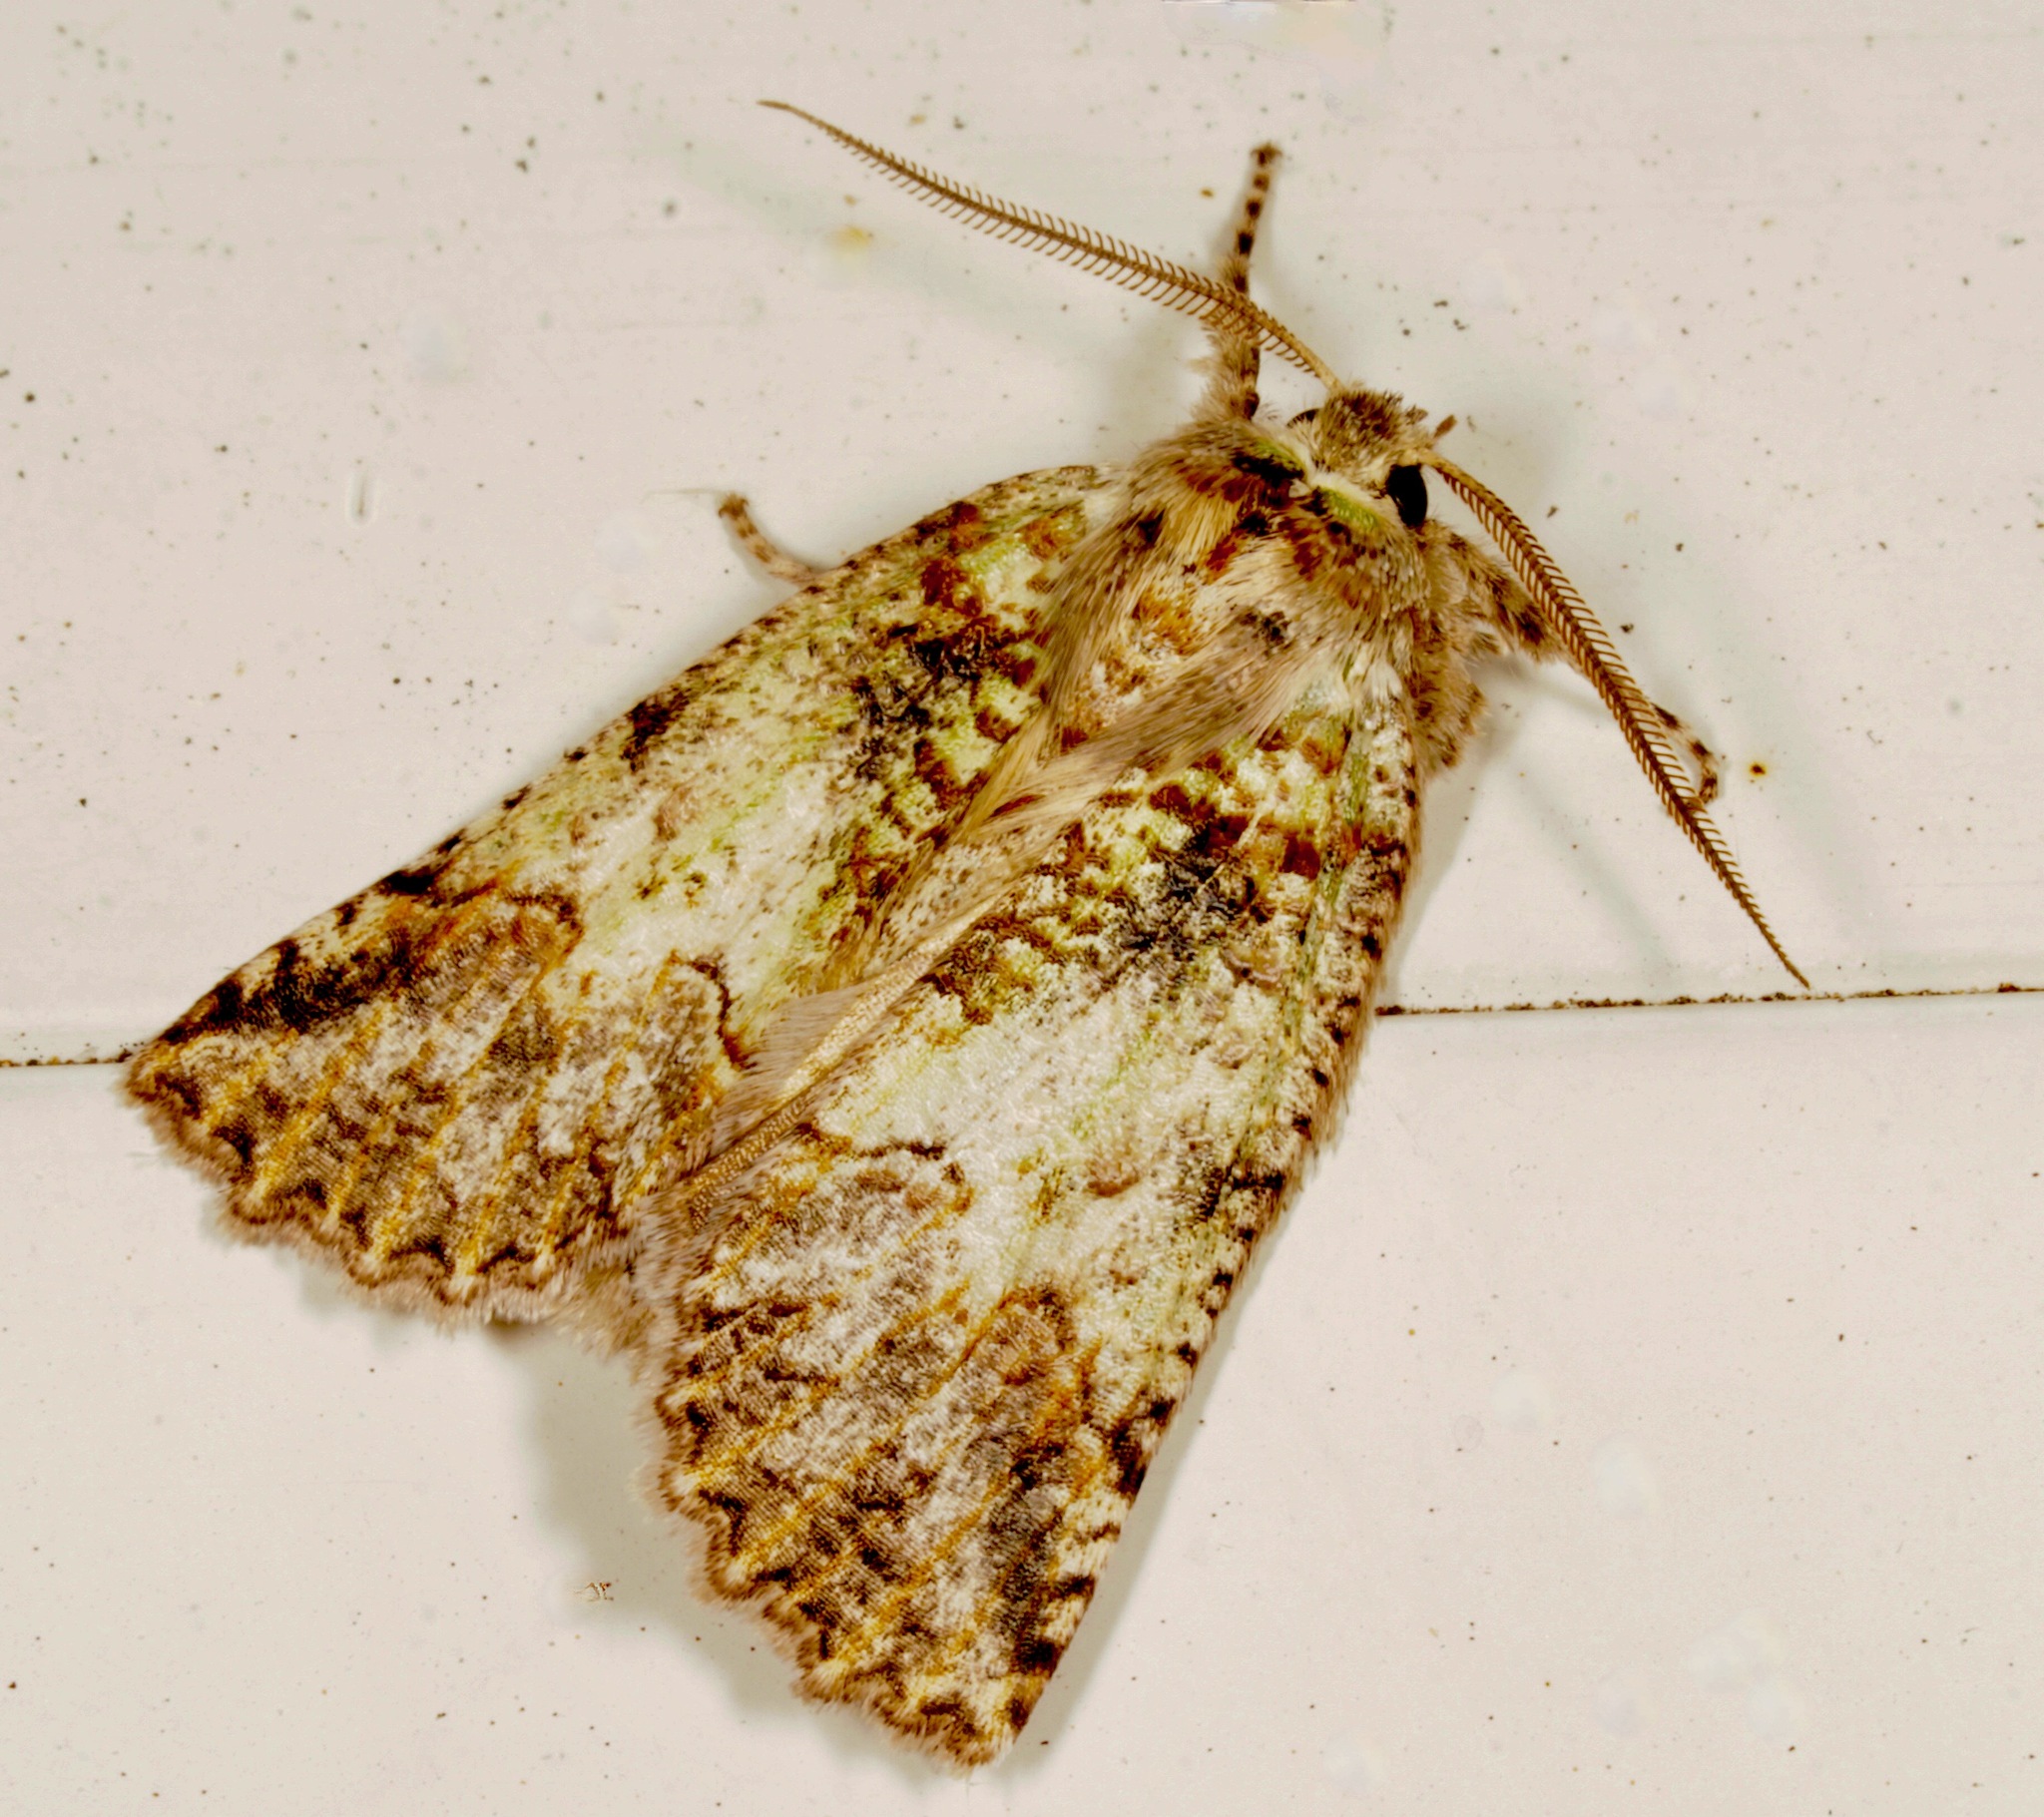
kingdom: Animalia
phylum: Arthropoda
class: Insecta
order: Lepidoptera
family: Geometridae
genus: Declana
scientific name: Declana floccosa
